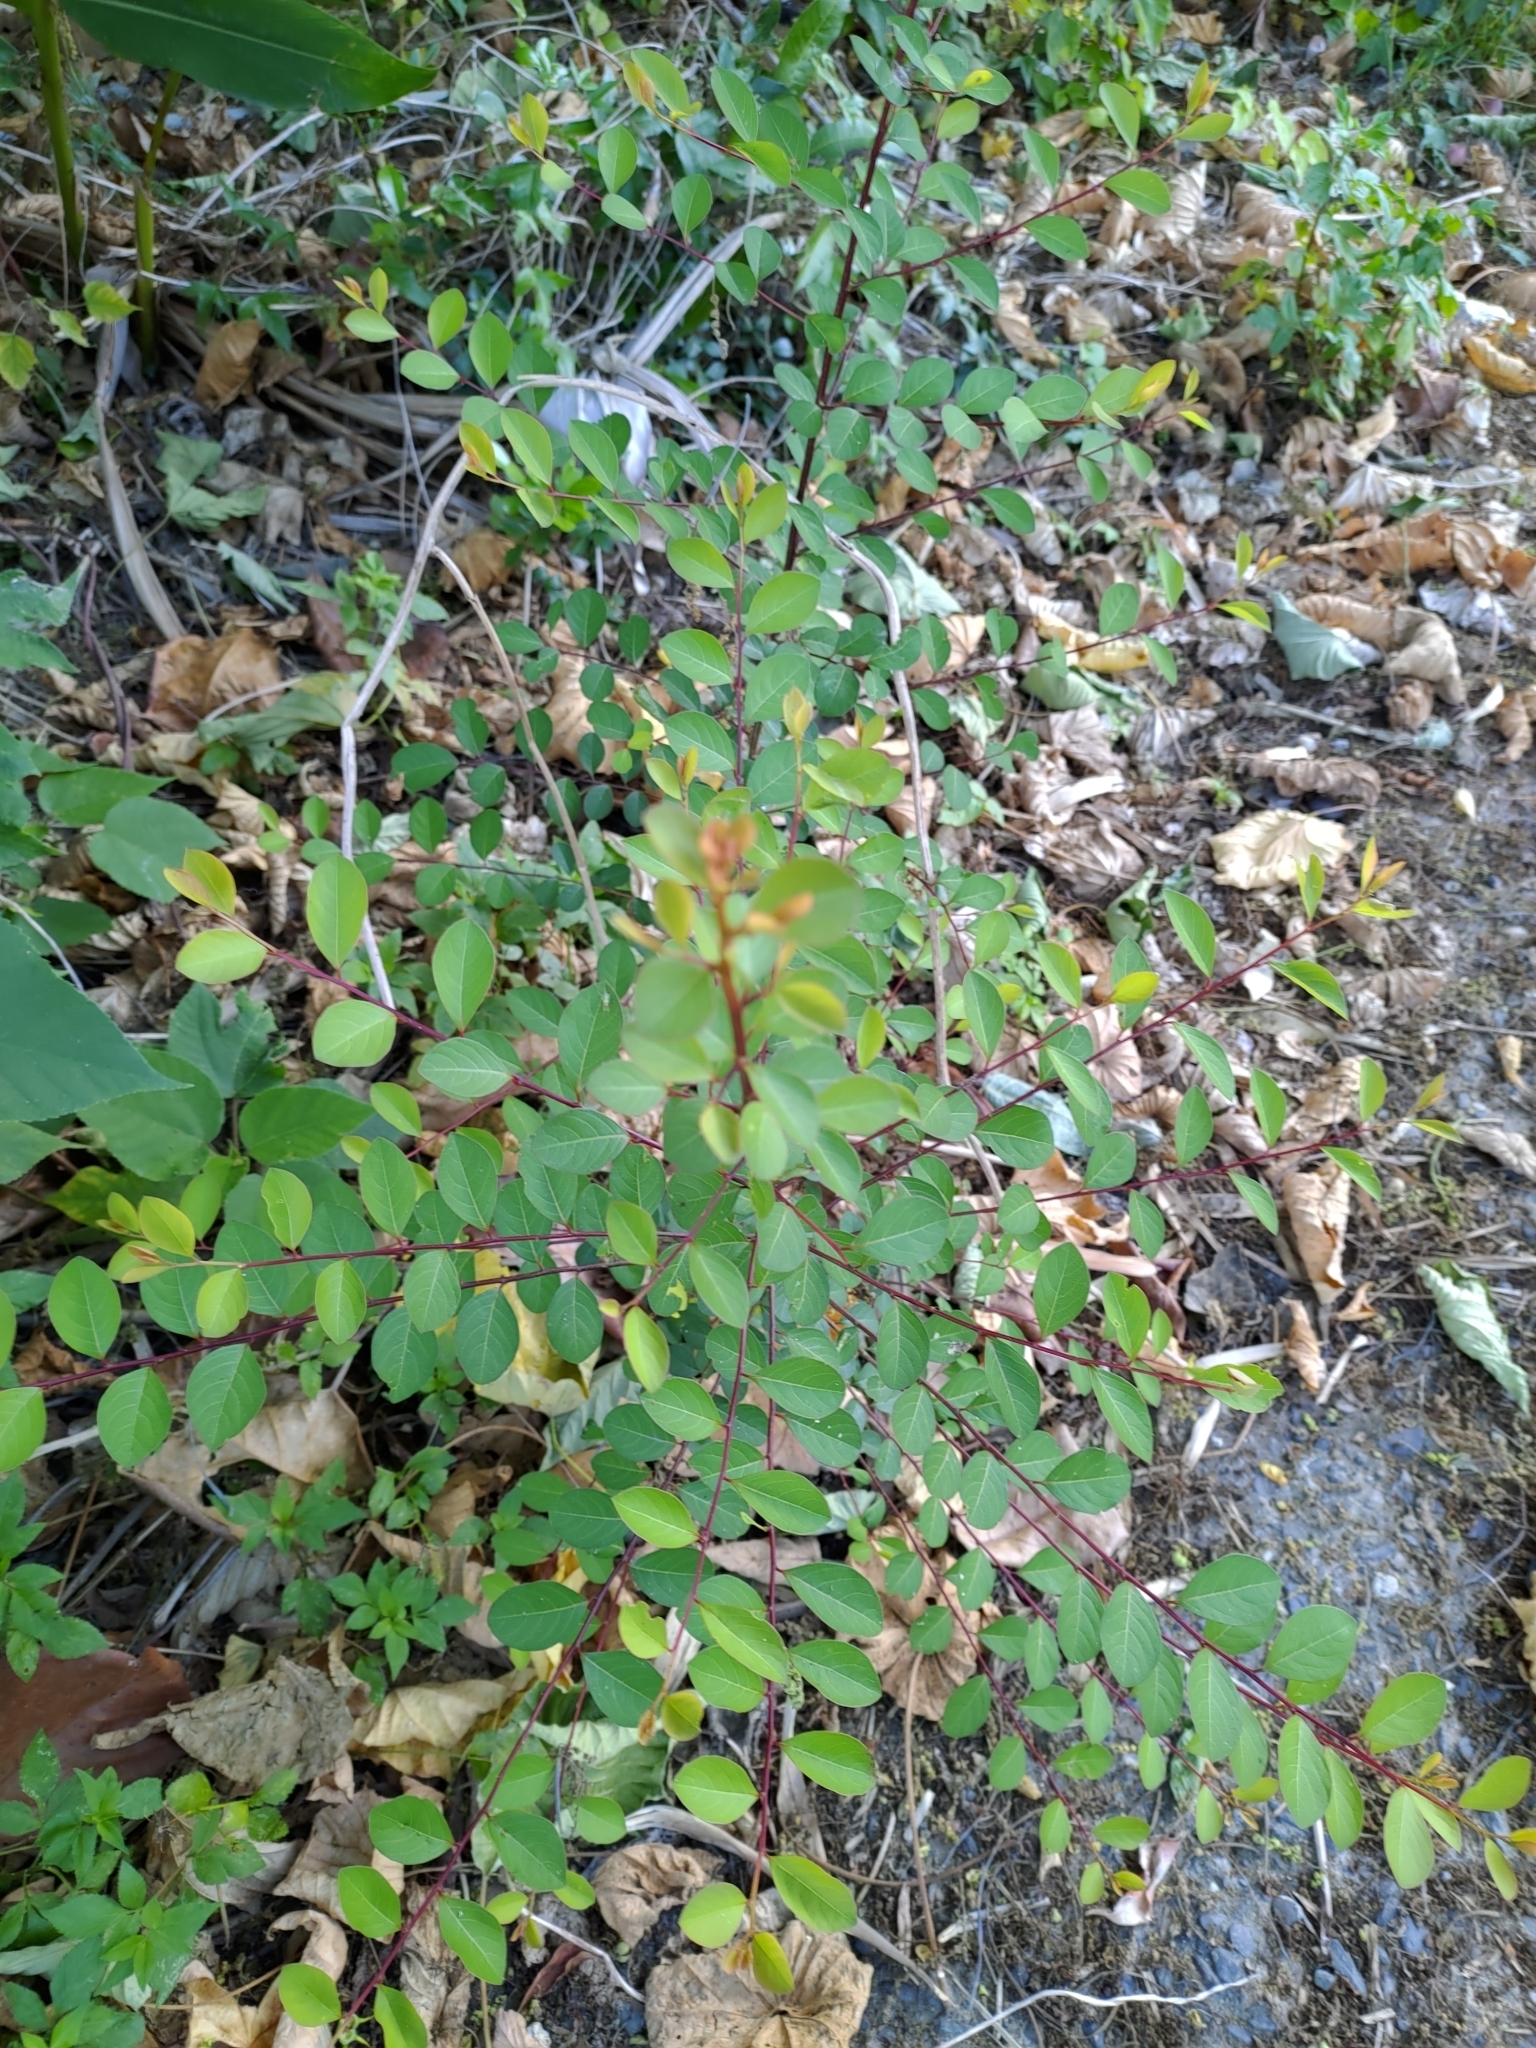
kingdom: Plantae
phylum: Tracheophyta
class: Magnoliopsida
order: Malpighiales
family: Phyllanthaceae
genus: Flueggea
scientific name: Flueggea virosa
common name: Common bushweed
